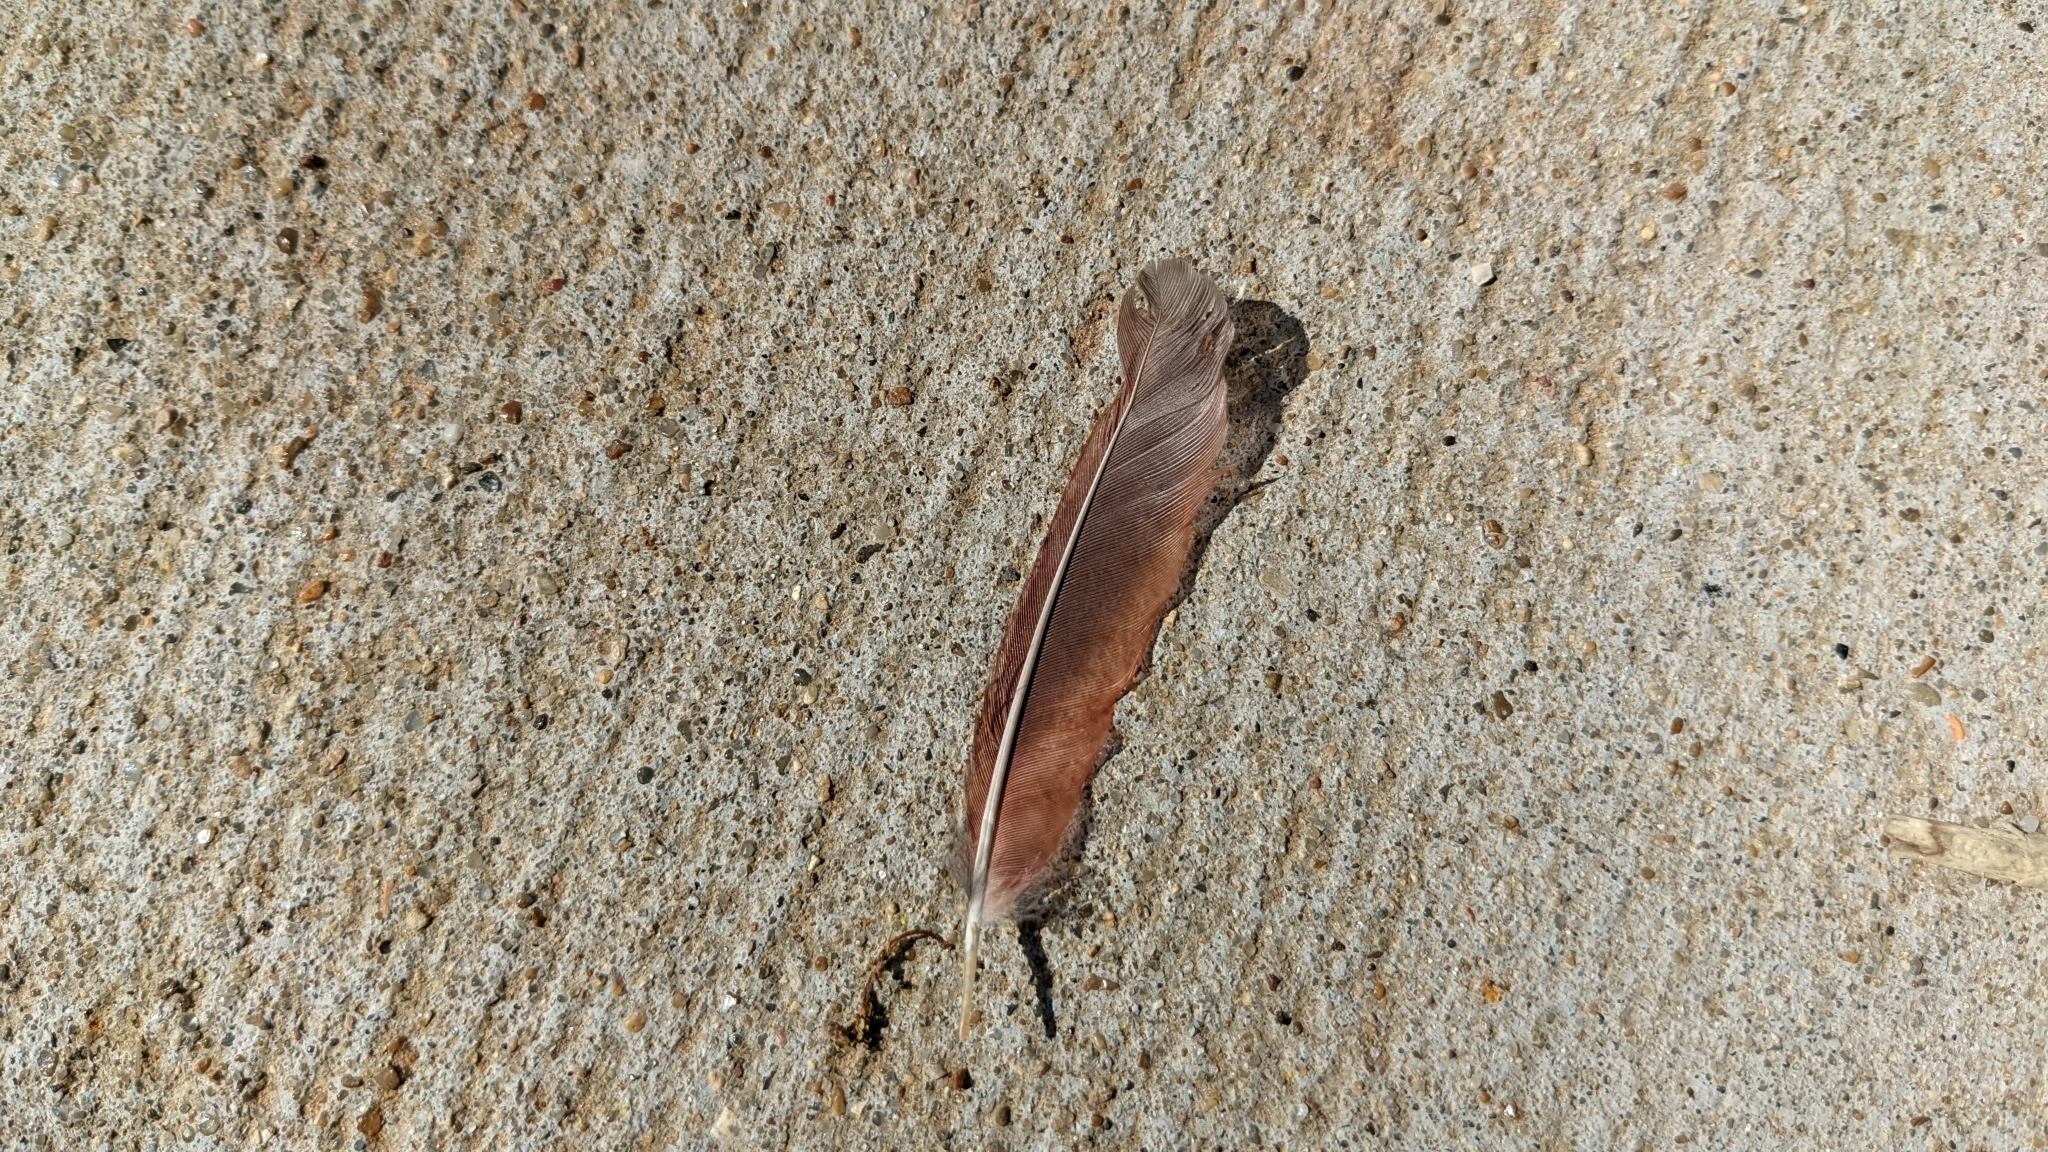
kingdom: Animalia
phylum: Chordata
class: Aves
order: Passeriformes
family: Cardinalidae
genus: Cardinalis
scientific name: Cardinalis cardinalis
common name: Northern cardinal
